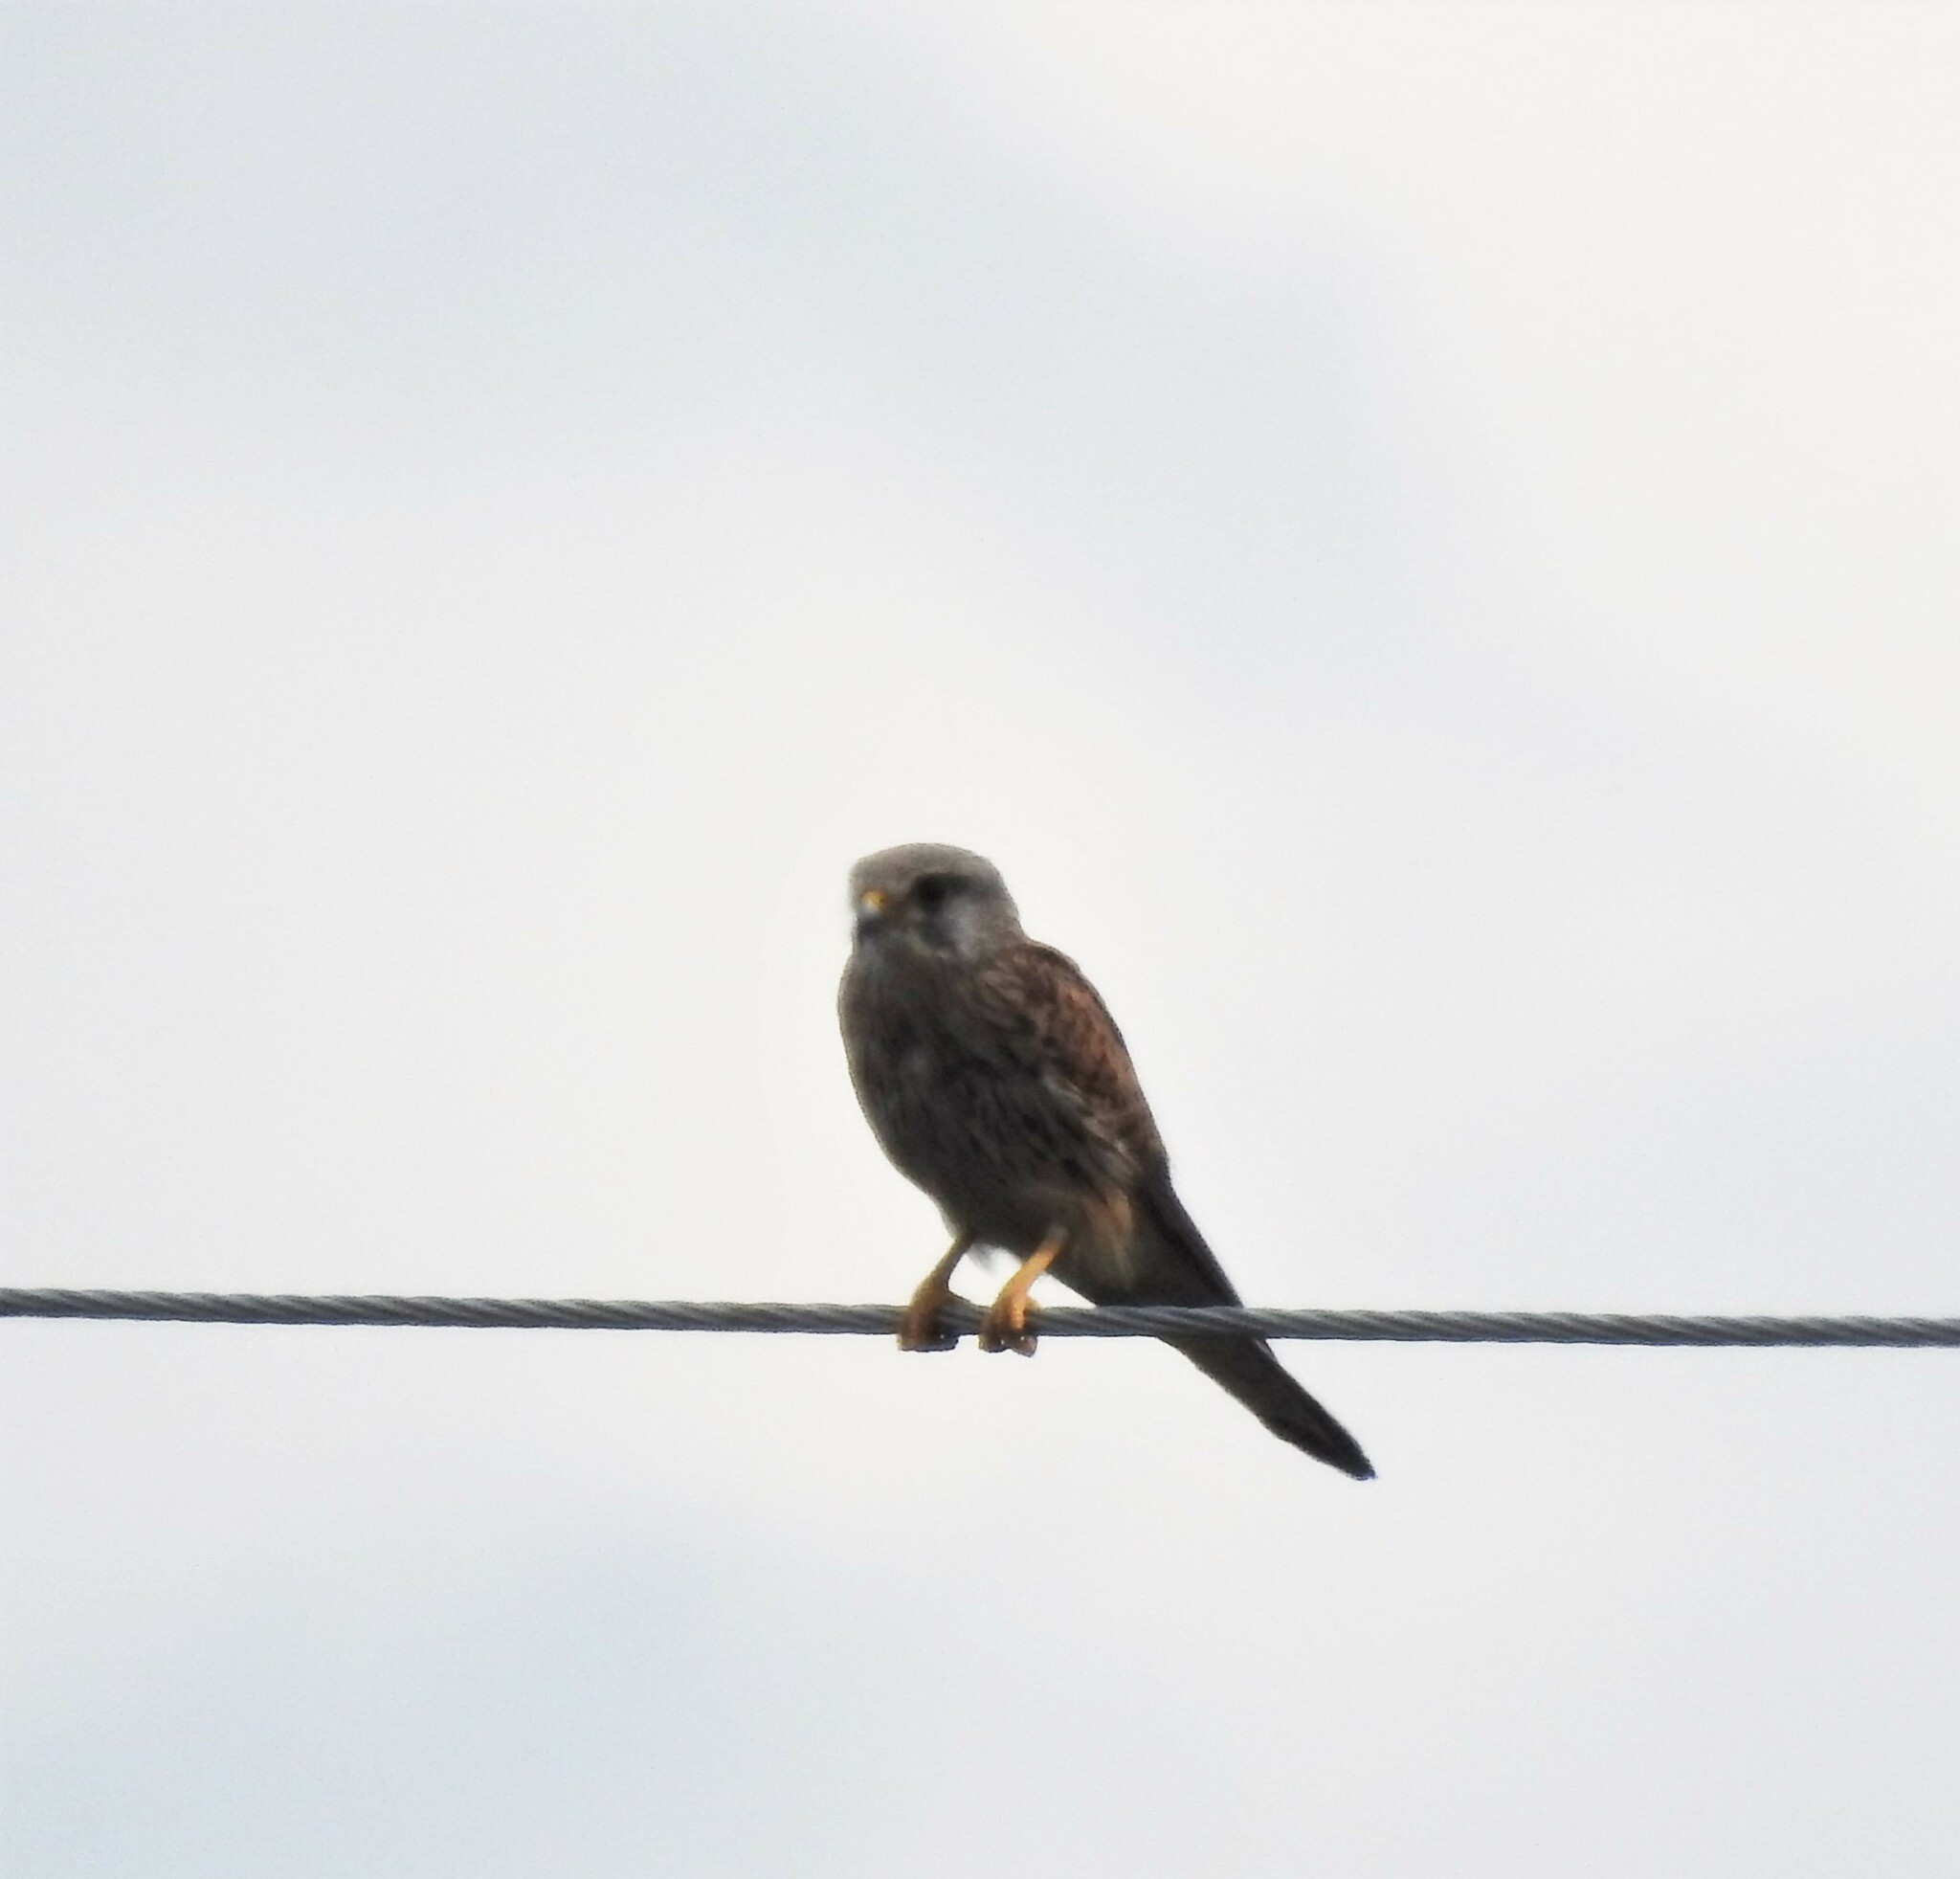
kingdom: Animalia
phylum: Chordata
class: Aves
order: Falconiformes
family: Falconidae
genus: Falco
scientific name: Falco tinnunculus
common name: Common kestrel
